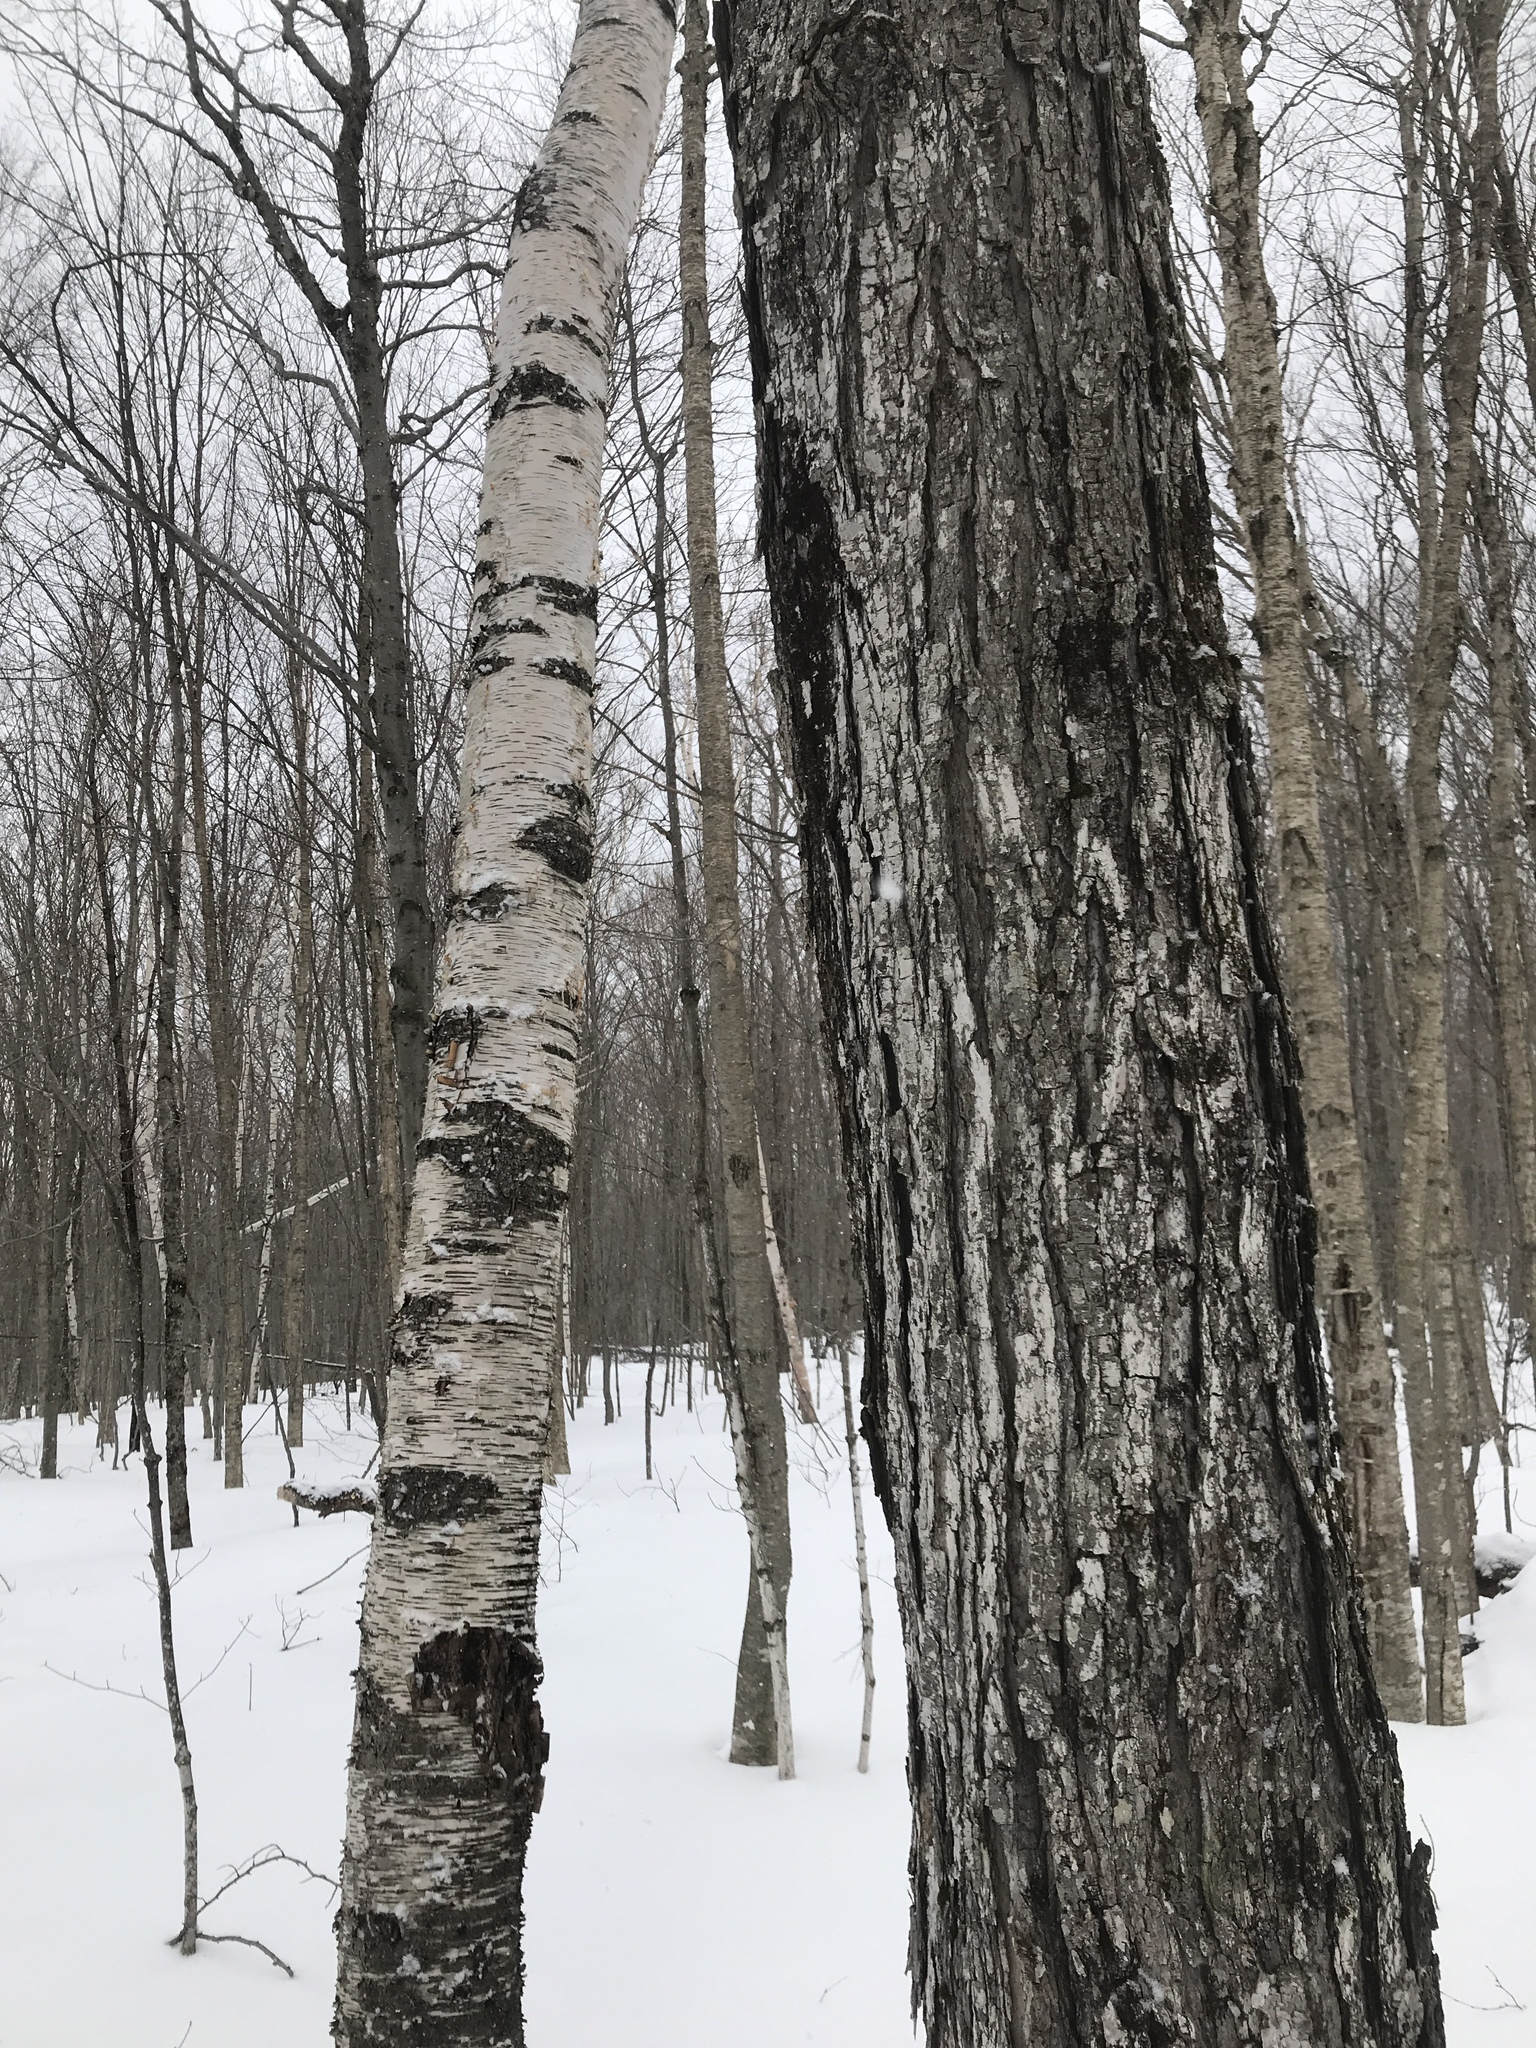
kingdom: Plantae
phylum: Tracheophyta
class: Magnoliopsida
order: Fagales
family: Betulaceae
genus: Betula
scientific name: Betula papyrifera
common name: Paper birch
